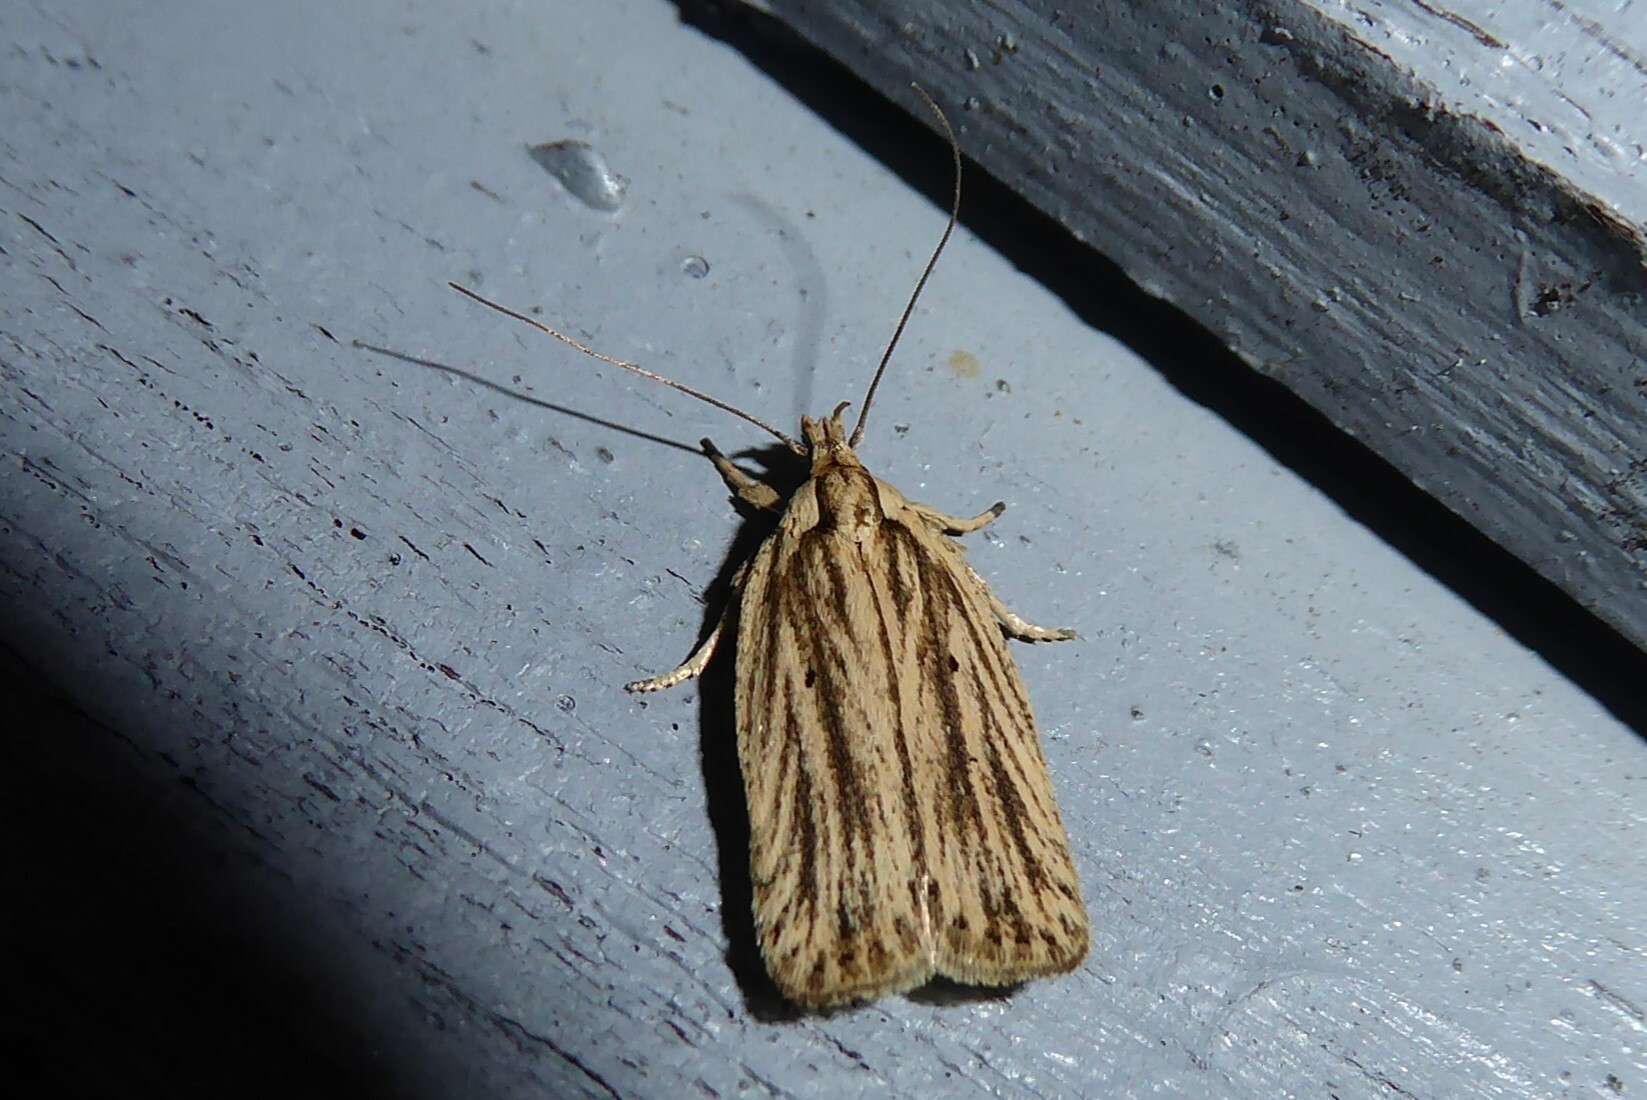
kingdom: Animalia
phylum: Arthropoda
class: Insecta
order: Lepidoptera
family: Depressariidae
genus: Agonopterix
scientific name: Agonopterix
